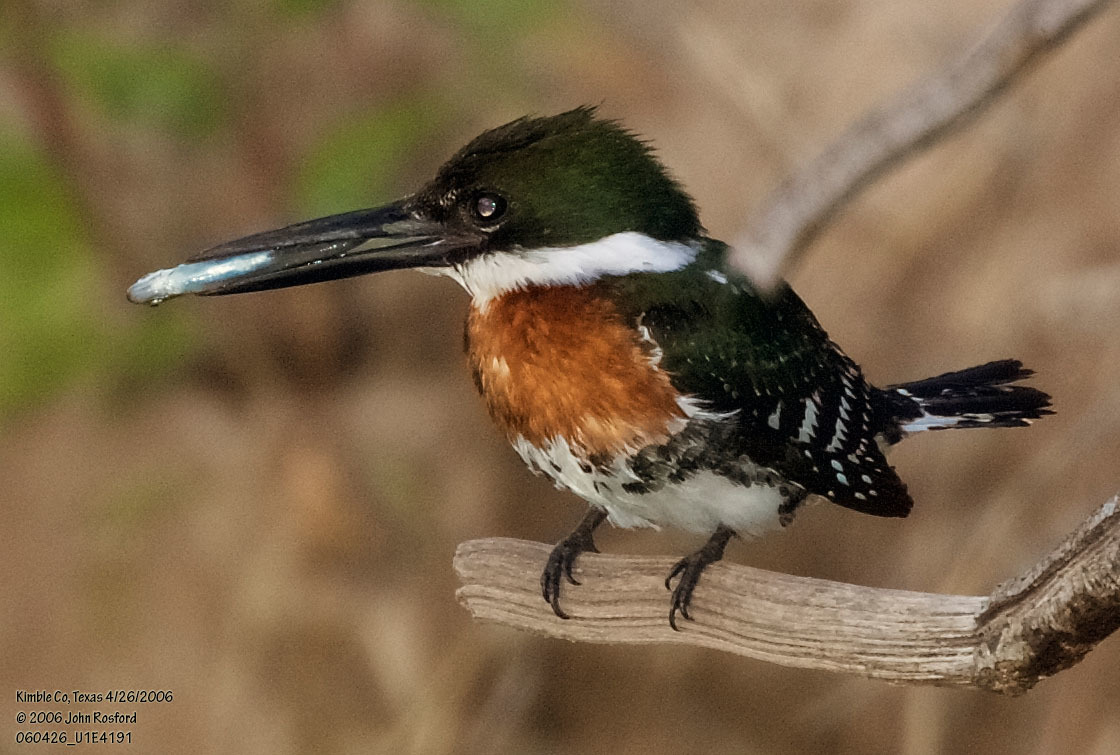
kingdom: Animalia
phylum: Chordata
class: Aves
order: Coraciiformes
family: Alcedinidae
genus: Chloroceryle
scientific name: Chloroceryle americana
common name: Green kingfisher
